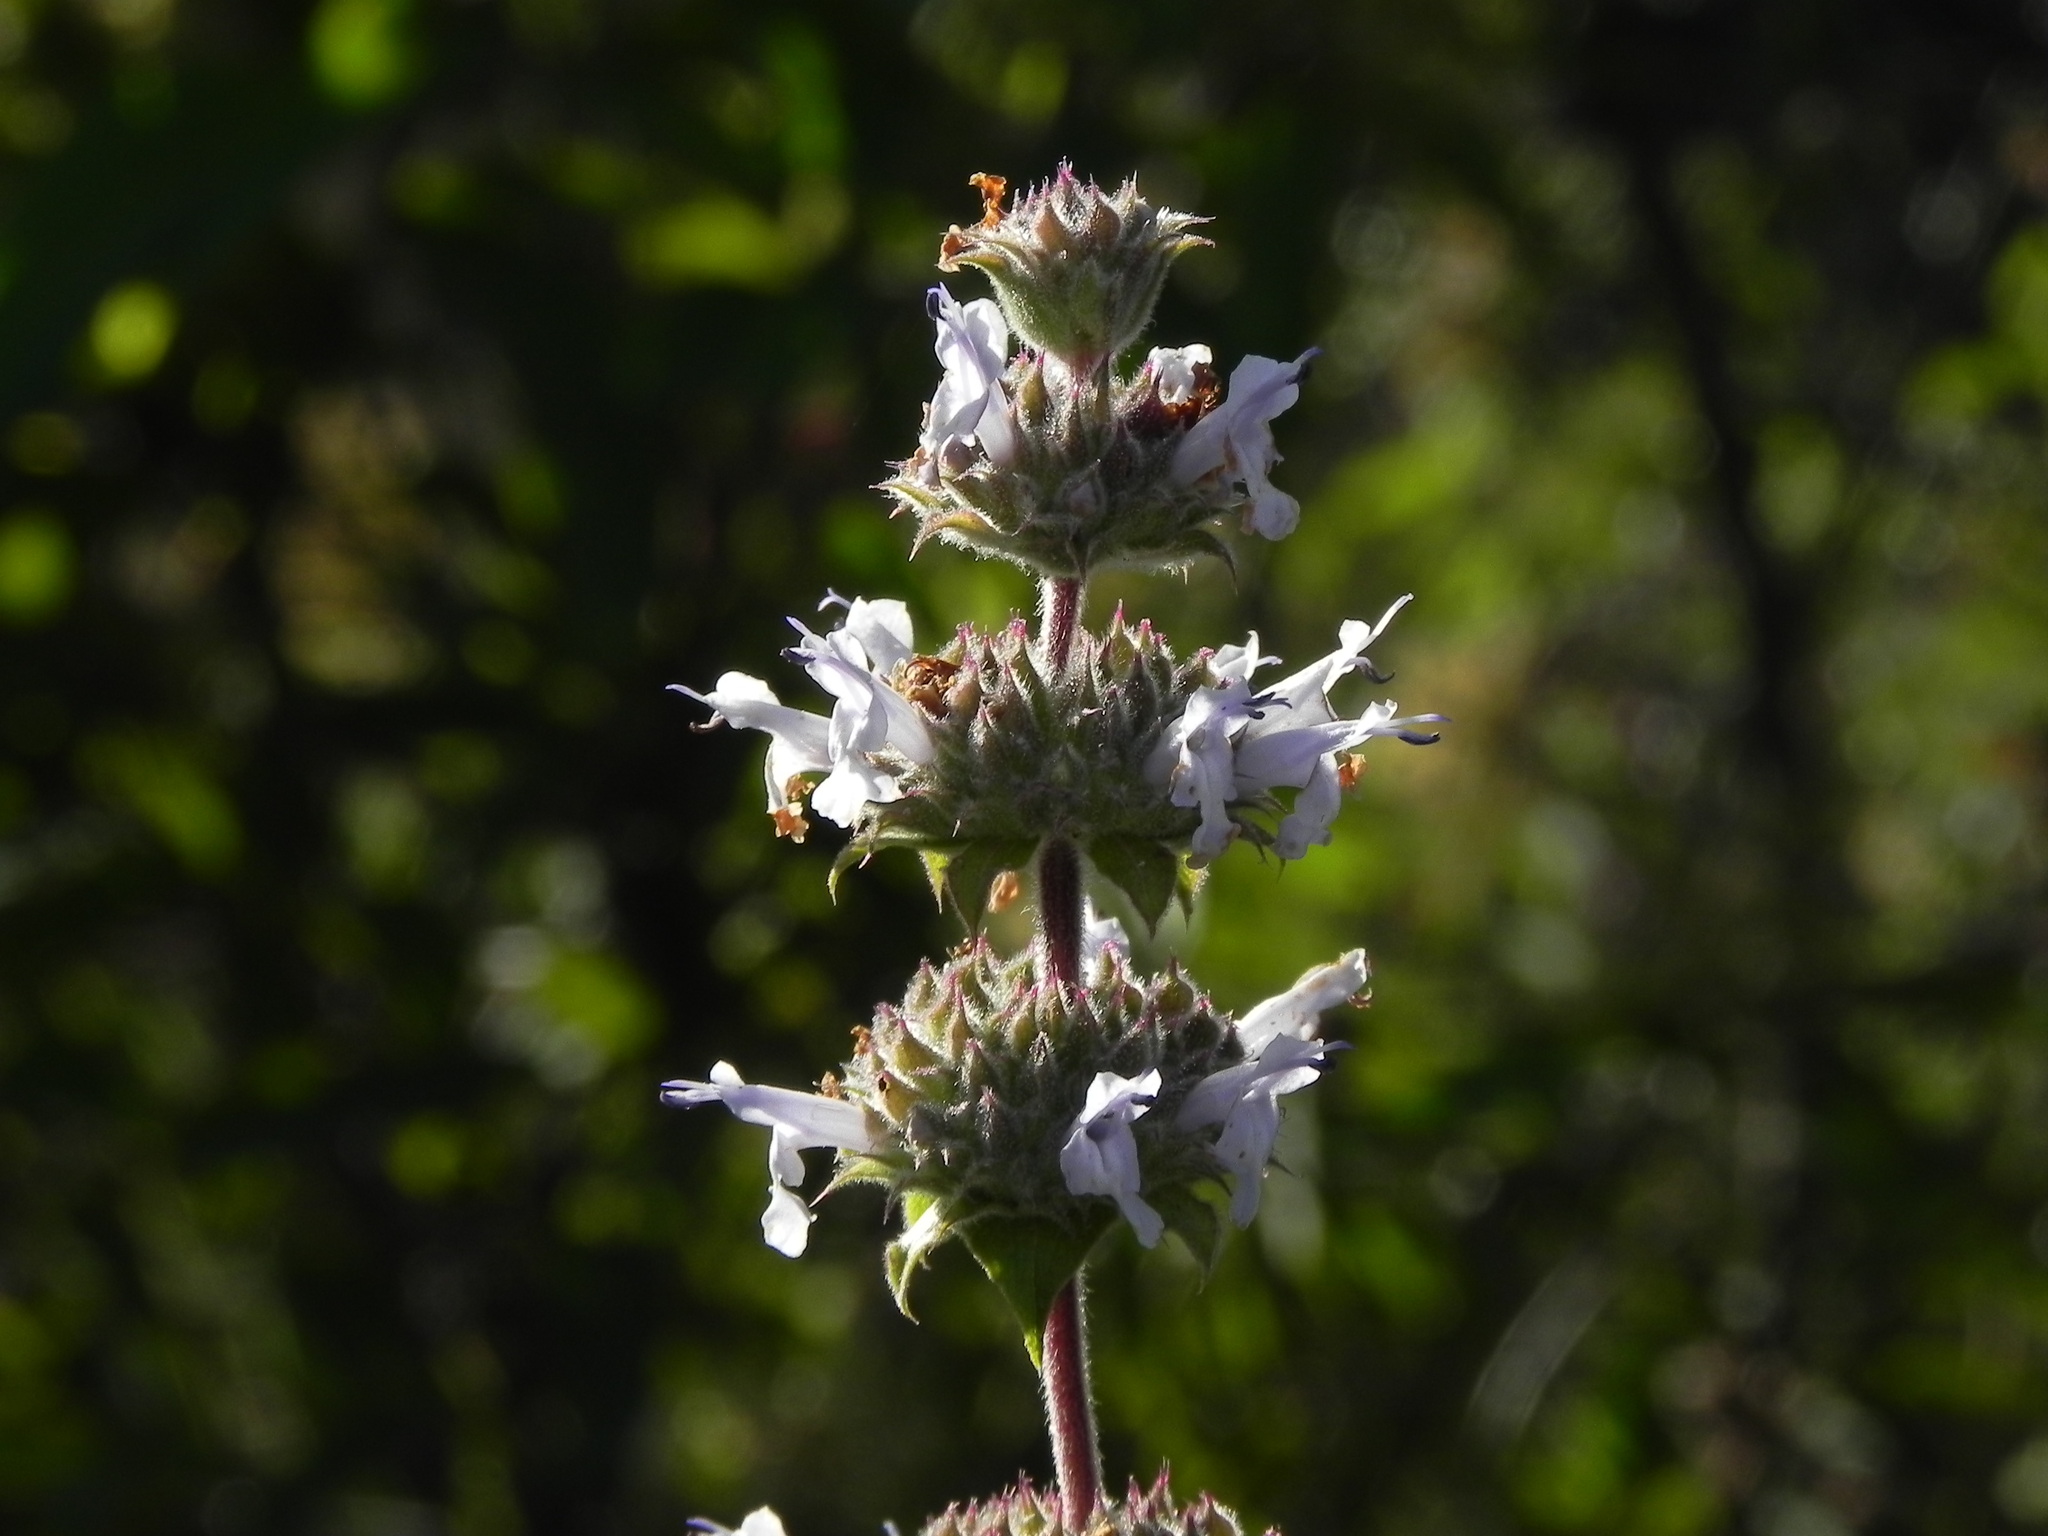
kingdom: Plantae
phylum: Tracheophyta
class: Magnoliopsida
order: Lamiales
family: Lamiaceae
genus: Salvia
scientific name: Salvia mellifera
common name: Black sage
